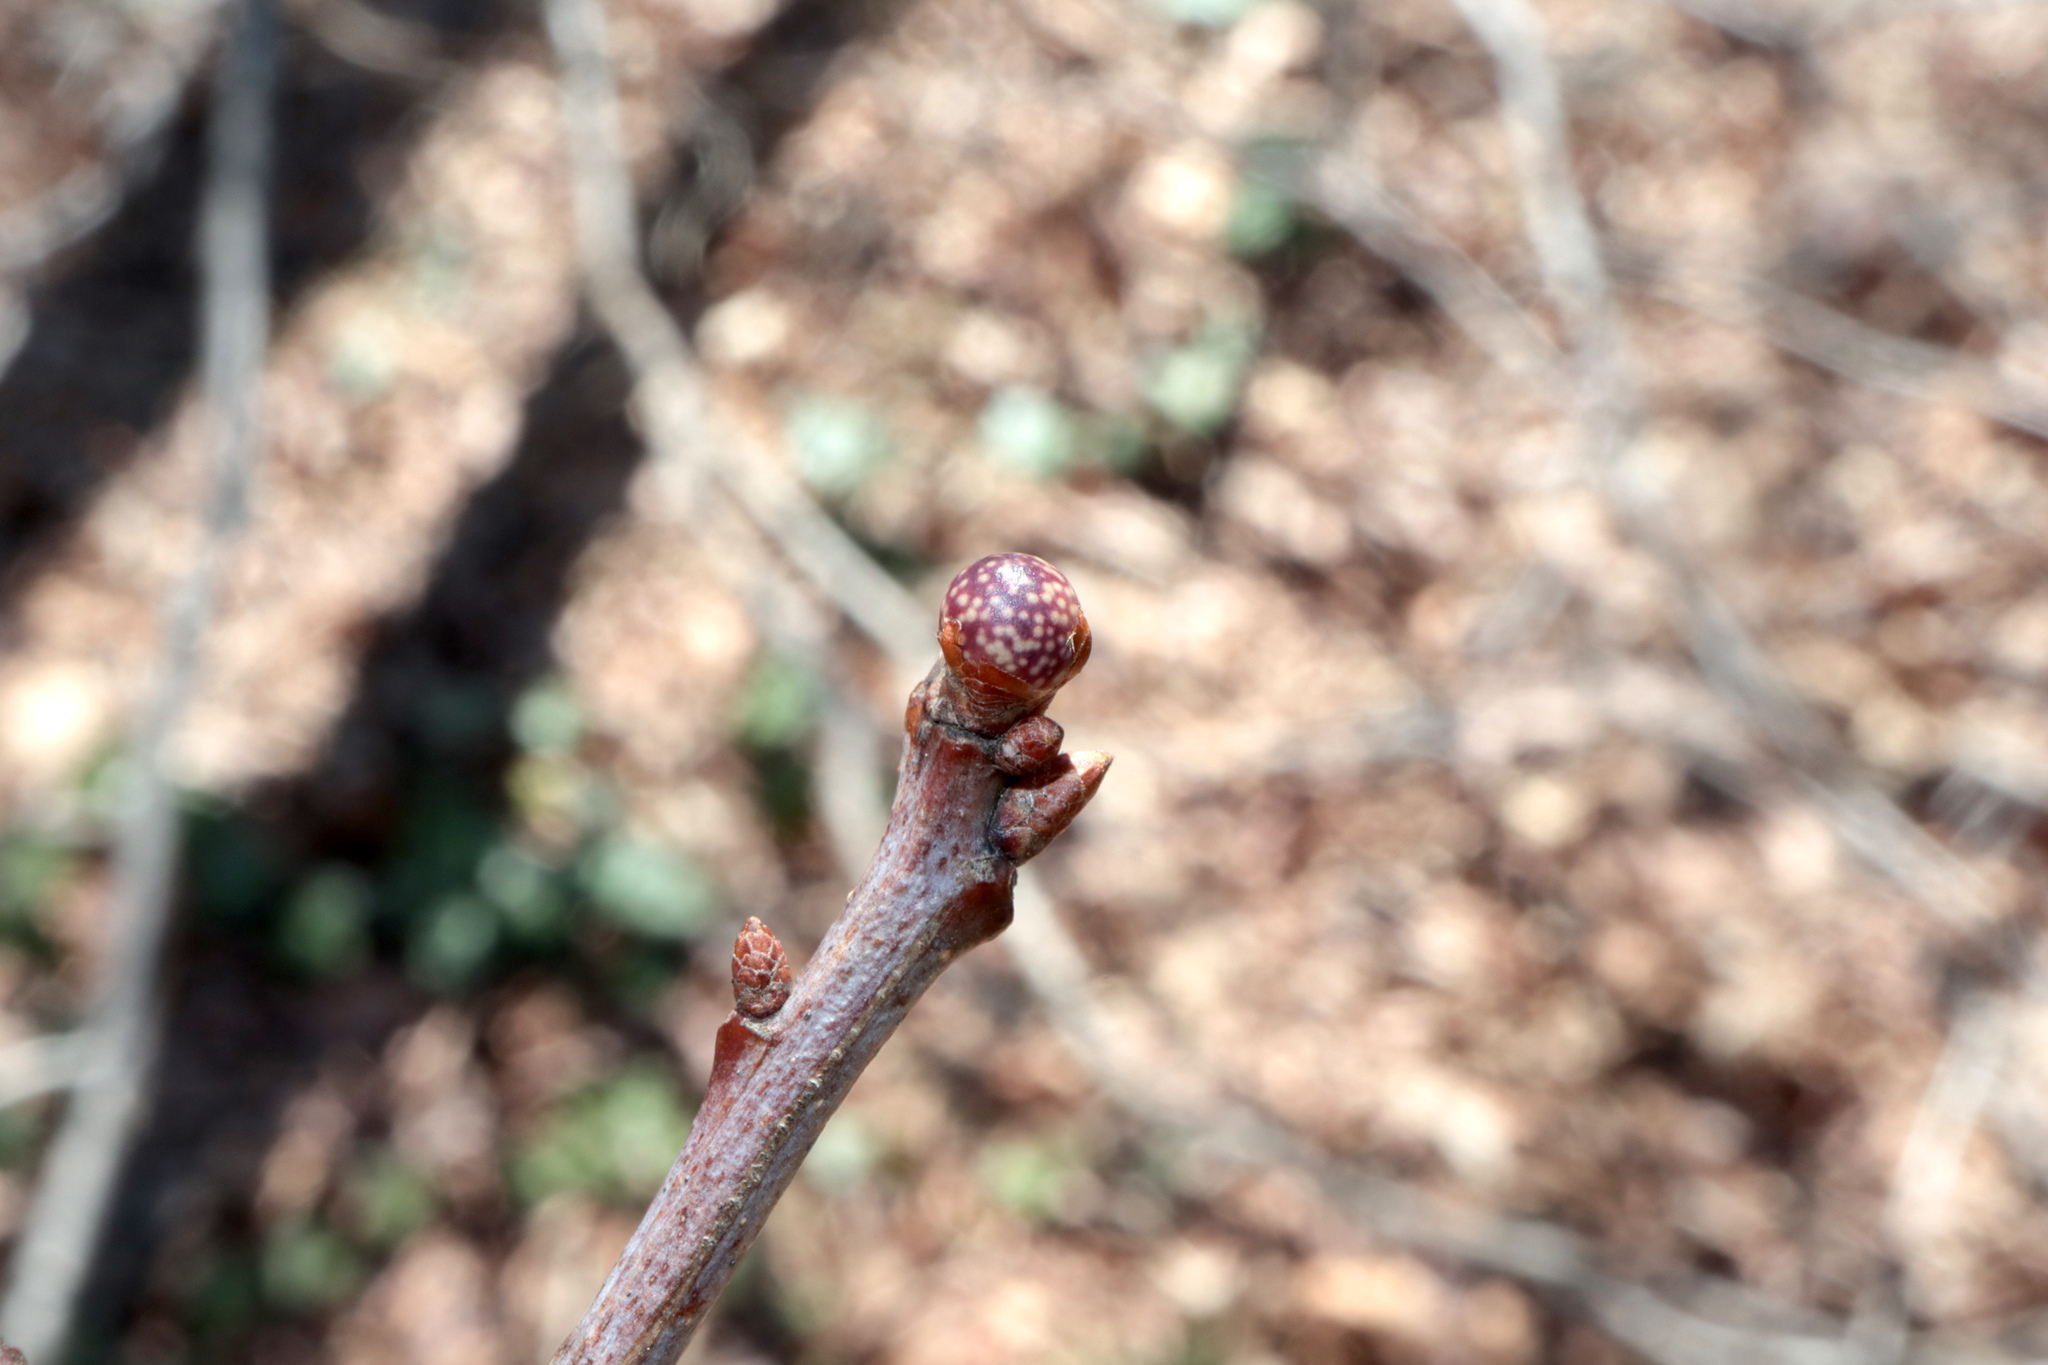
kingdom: Animalia
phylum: Arthropoda
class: Insecta
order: Hymenoptera
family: Cynipidae
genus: Andricus
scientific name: Andricus
